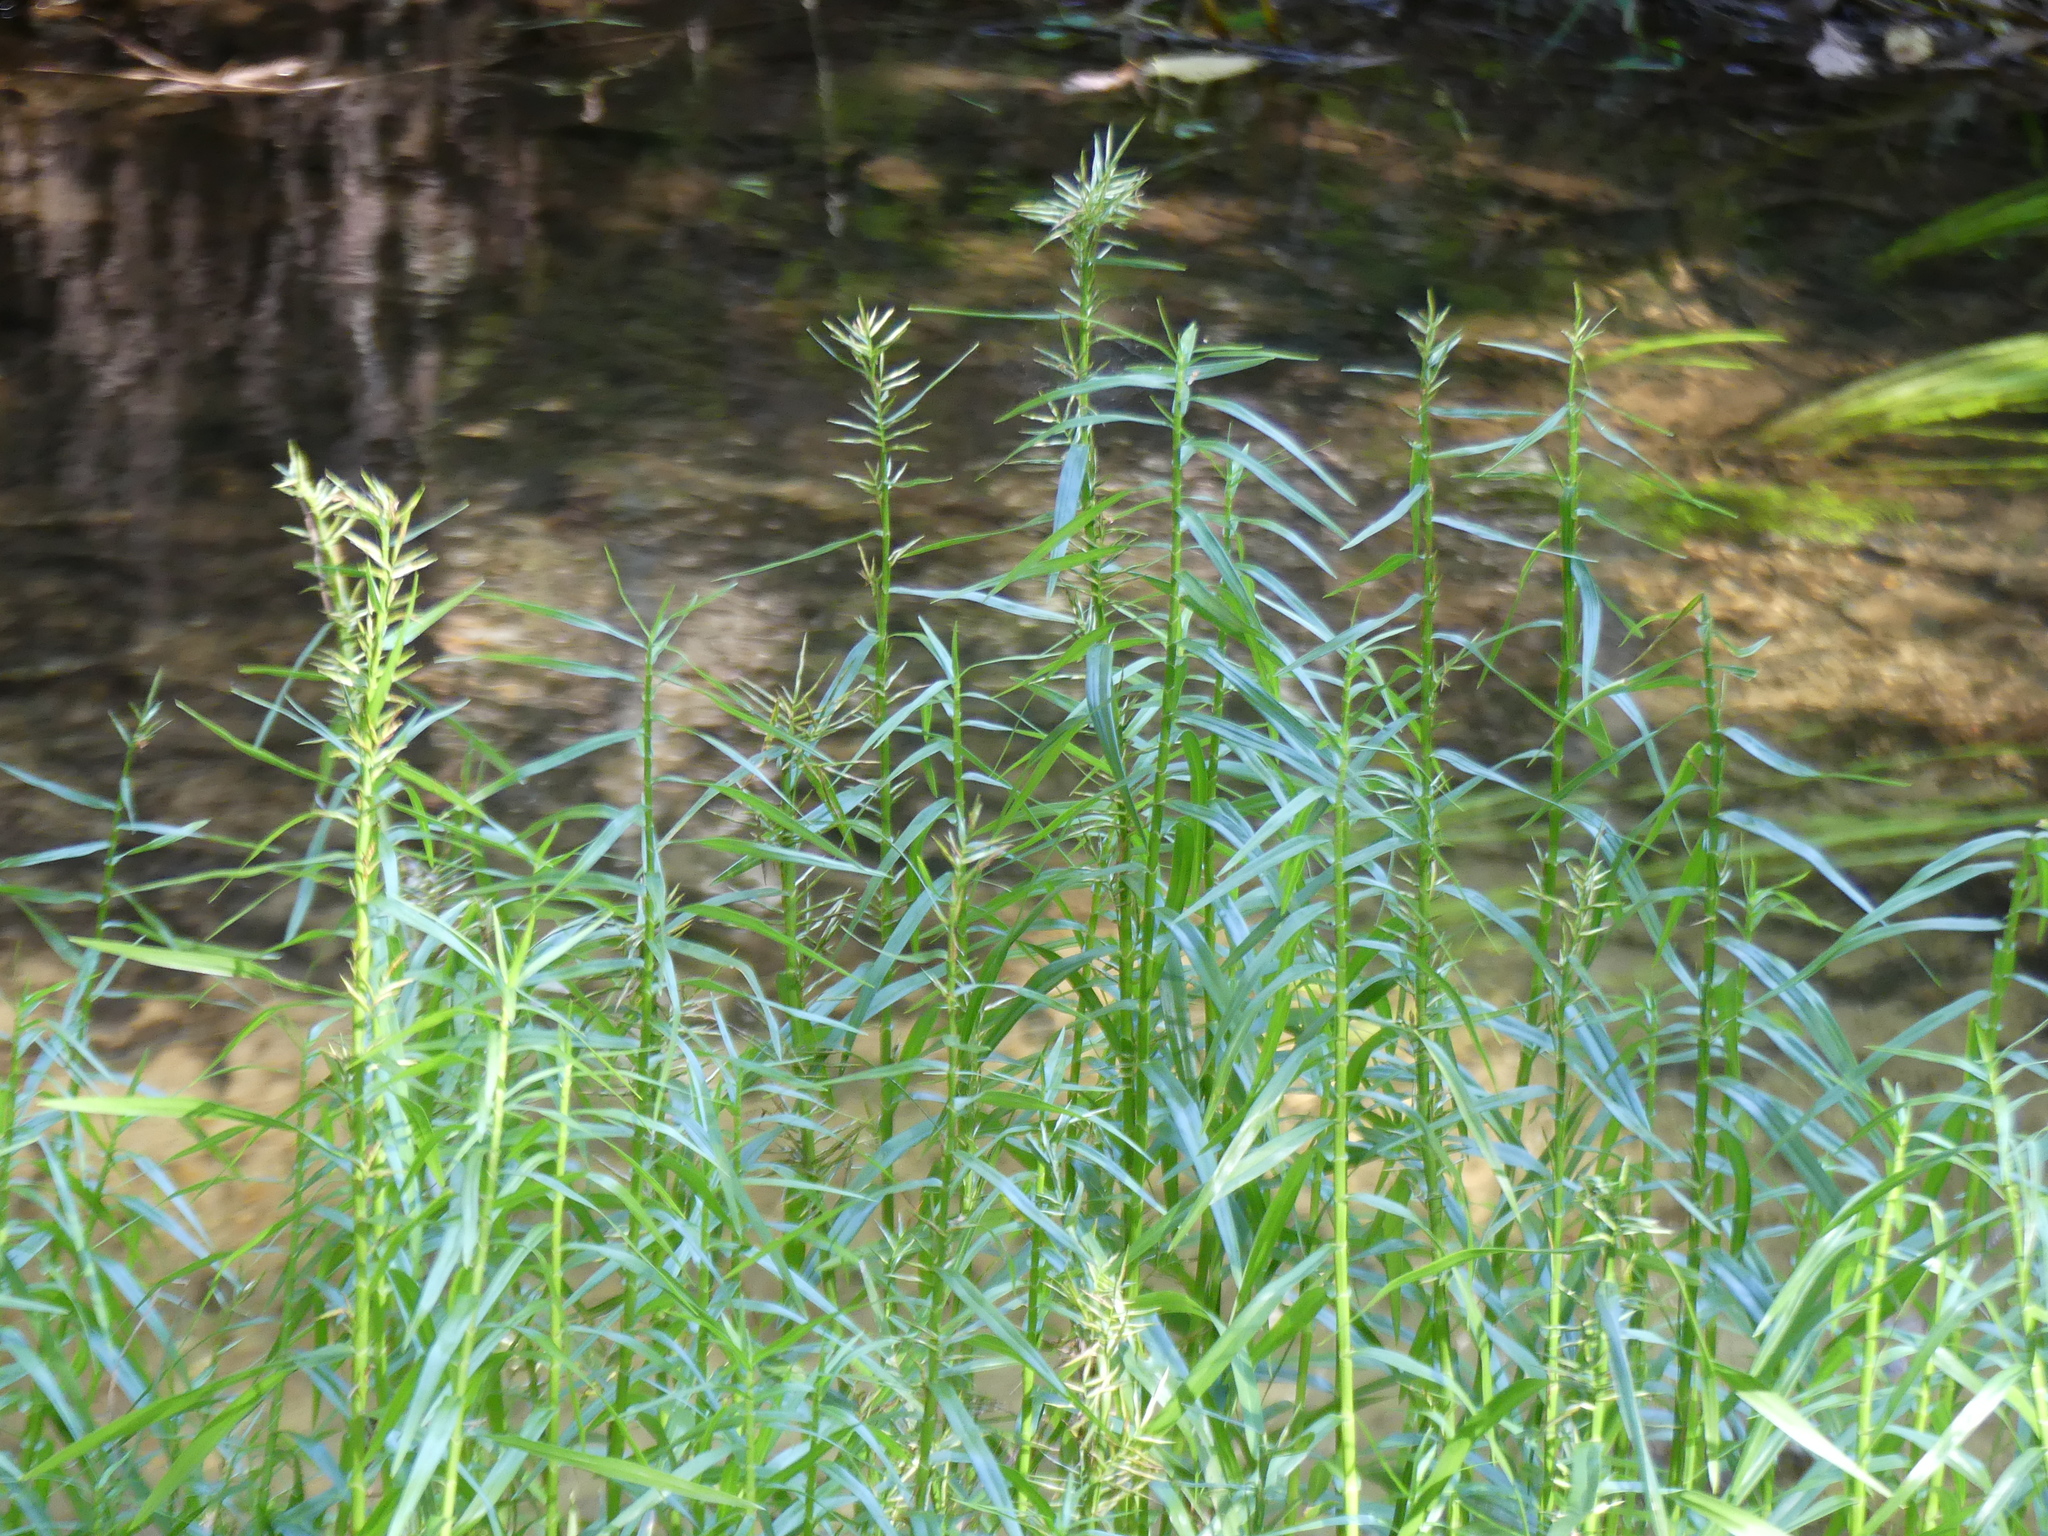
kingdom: Plantae
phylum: Tracheophyta
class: Liliopsida
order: Poales
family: Cyperaceae
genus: Dulichium
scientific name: Dulichium arundinaceum
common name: Three-way sedge
